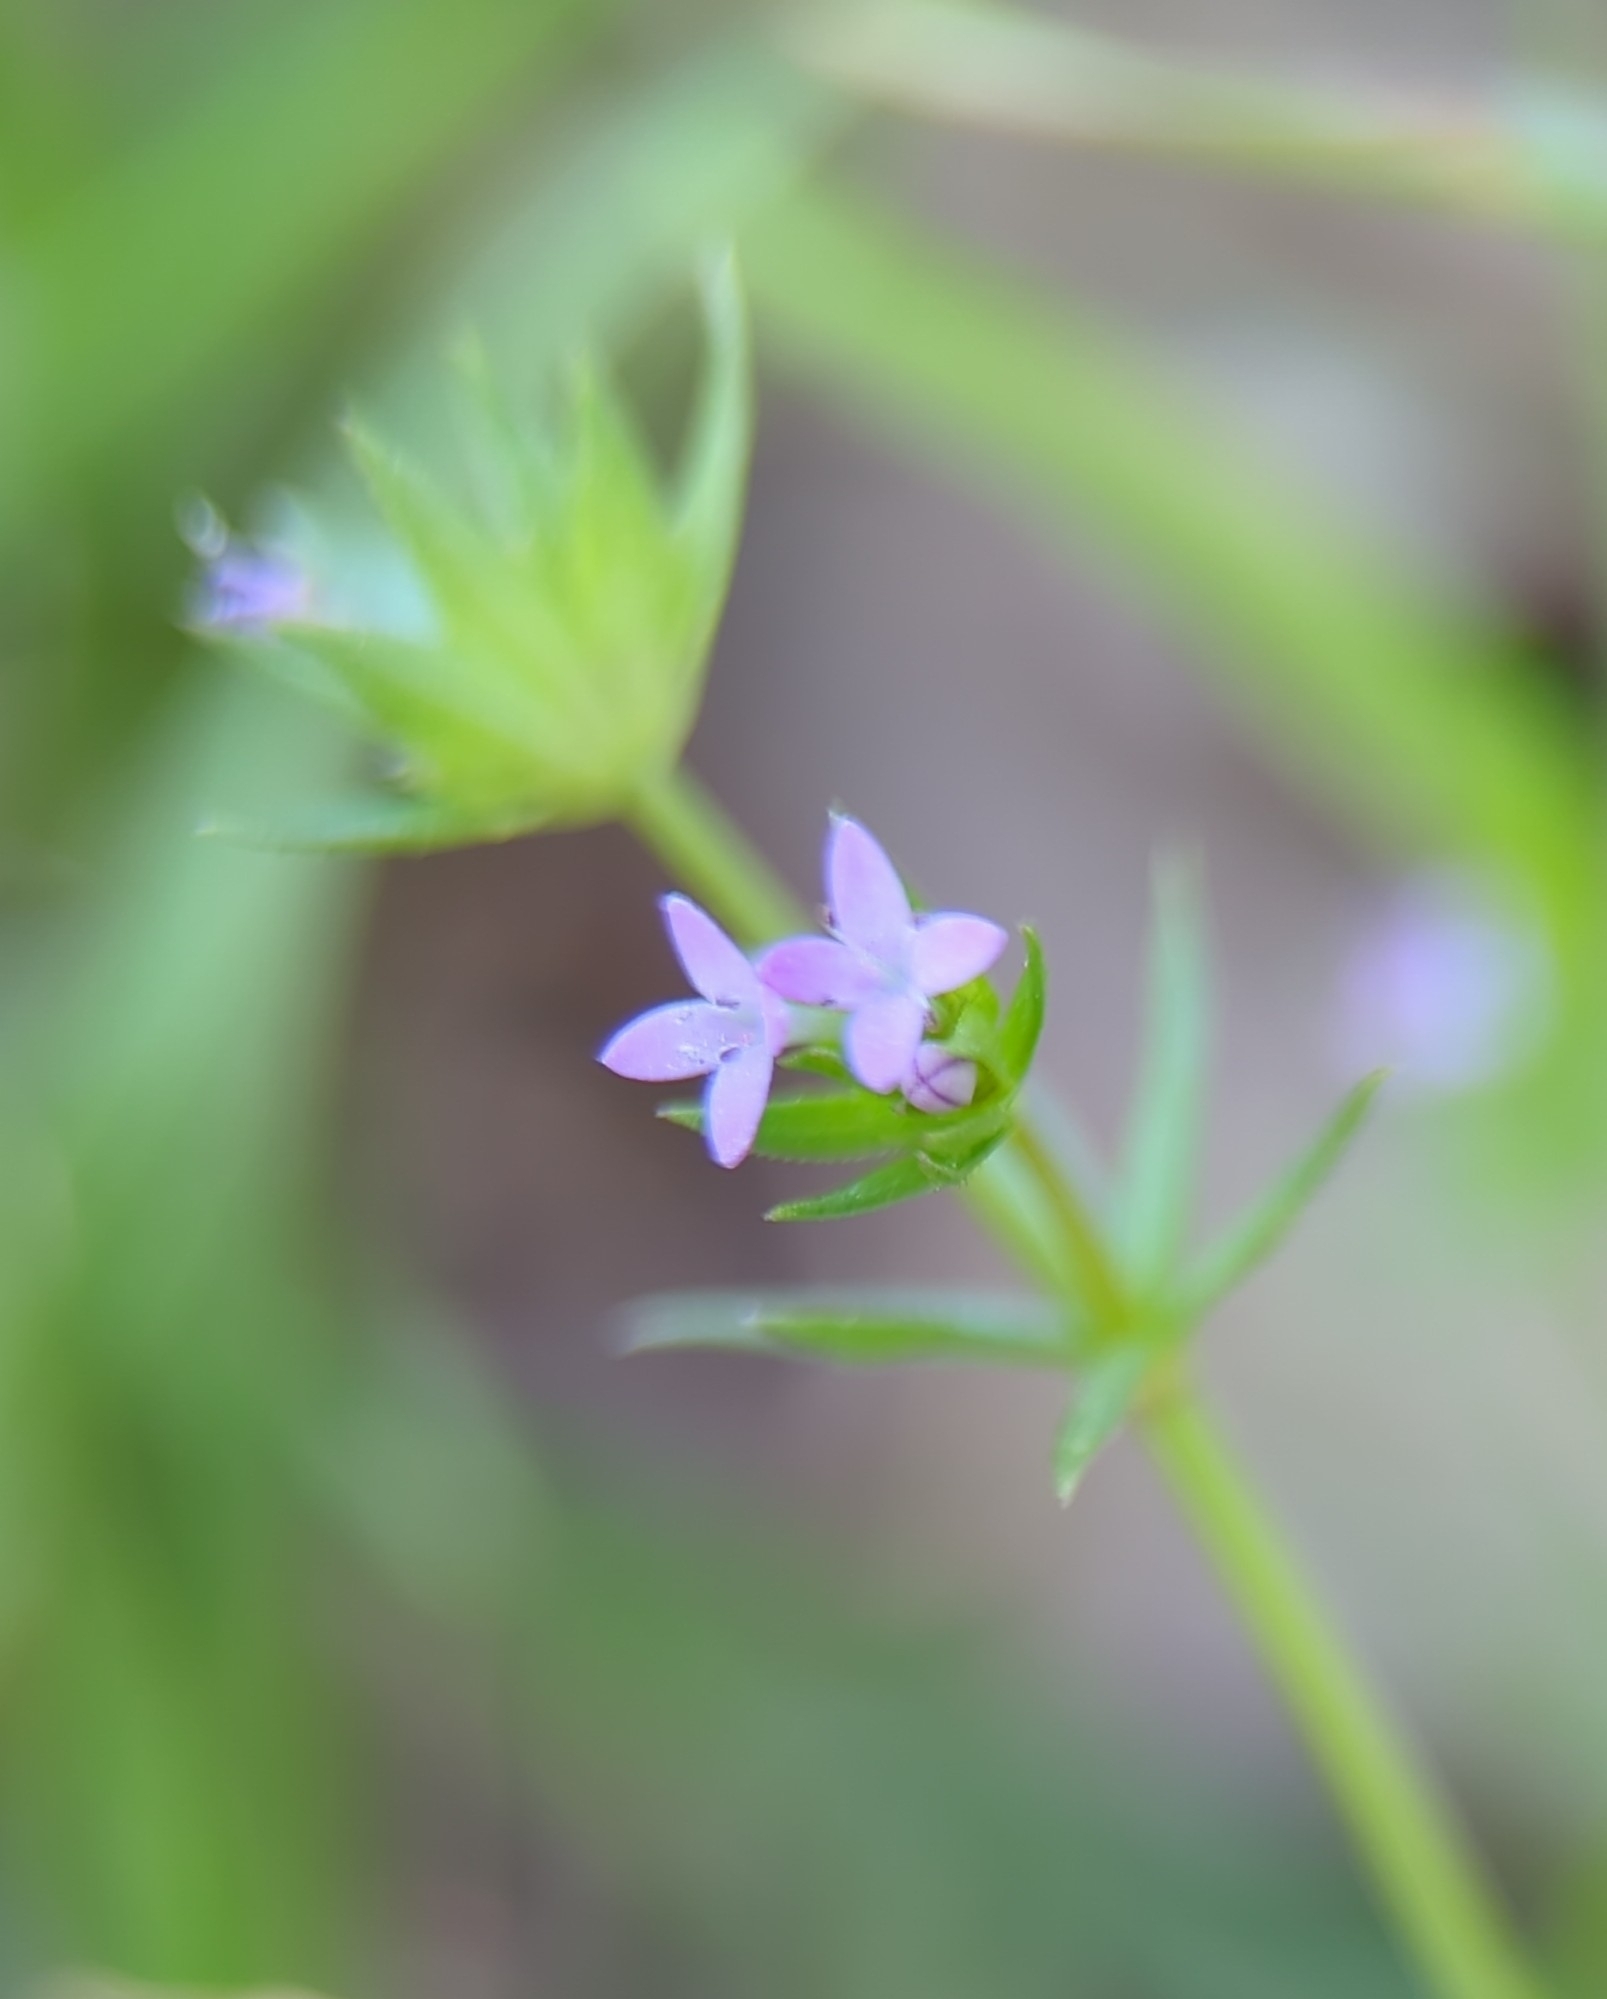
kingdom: Plantae
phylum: Tracheophyta
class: Magnoliopsida
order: Gentianales
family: Rubiaceae
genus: Sherardia
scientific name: Sherardia arvensis
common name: Field madder
